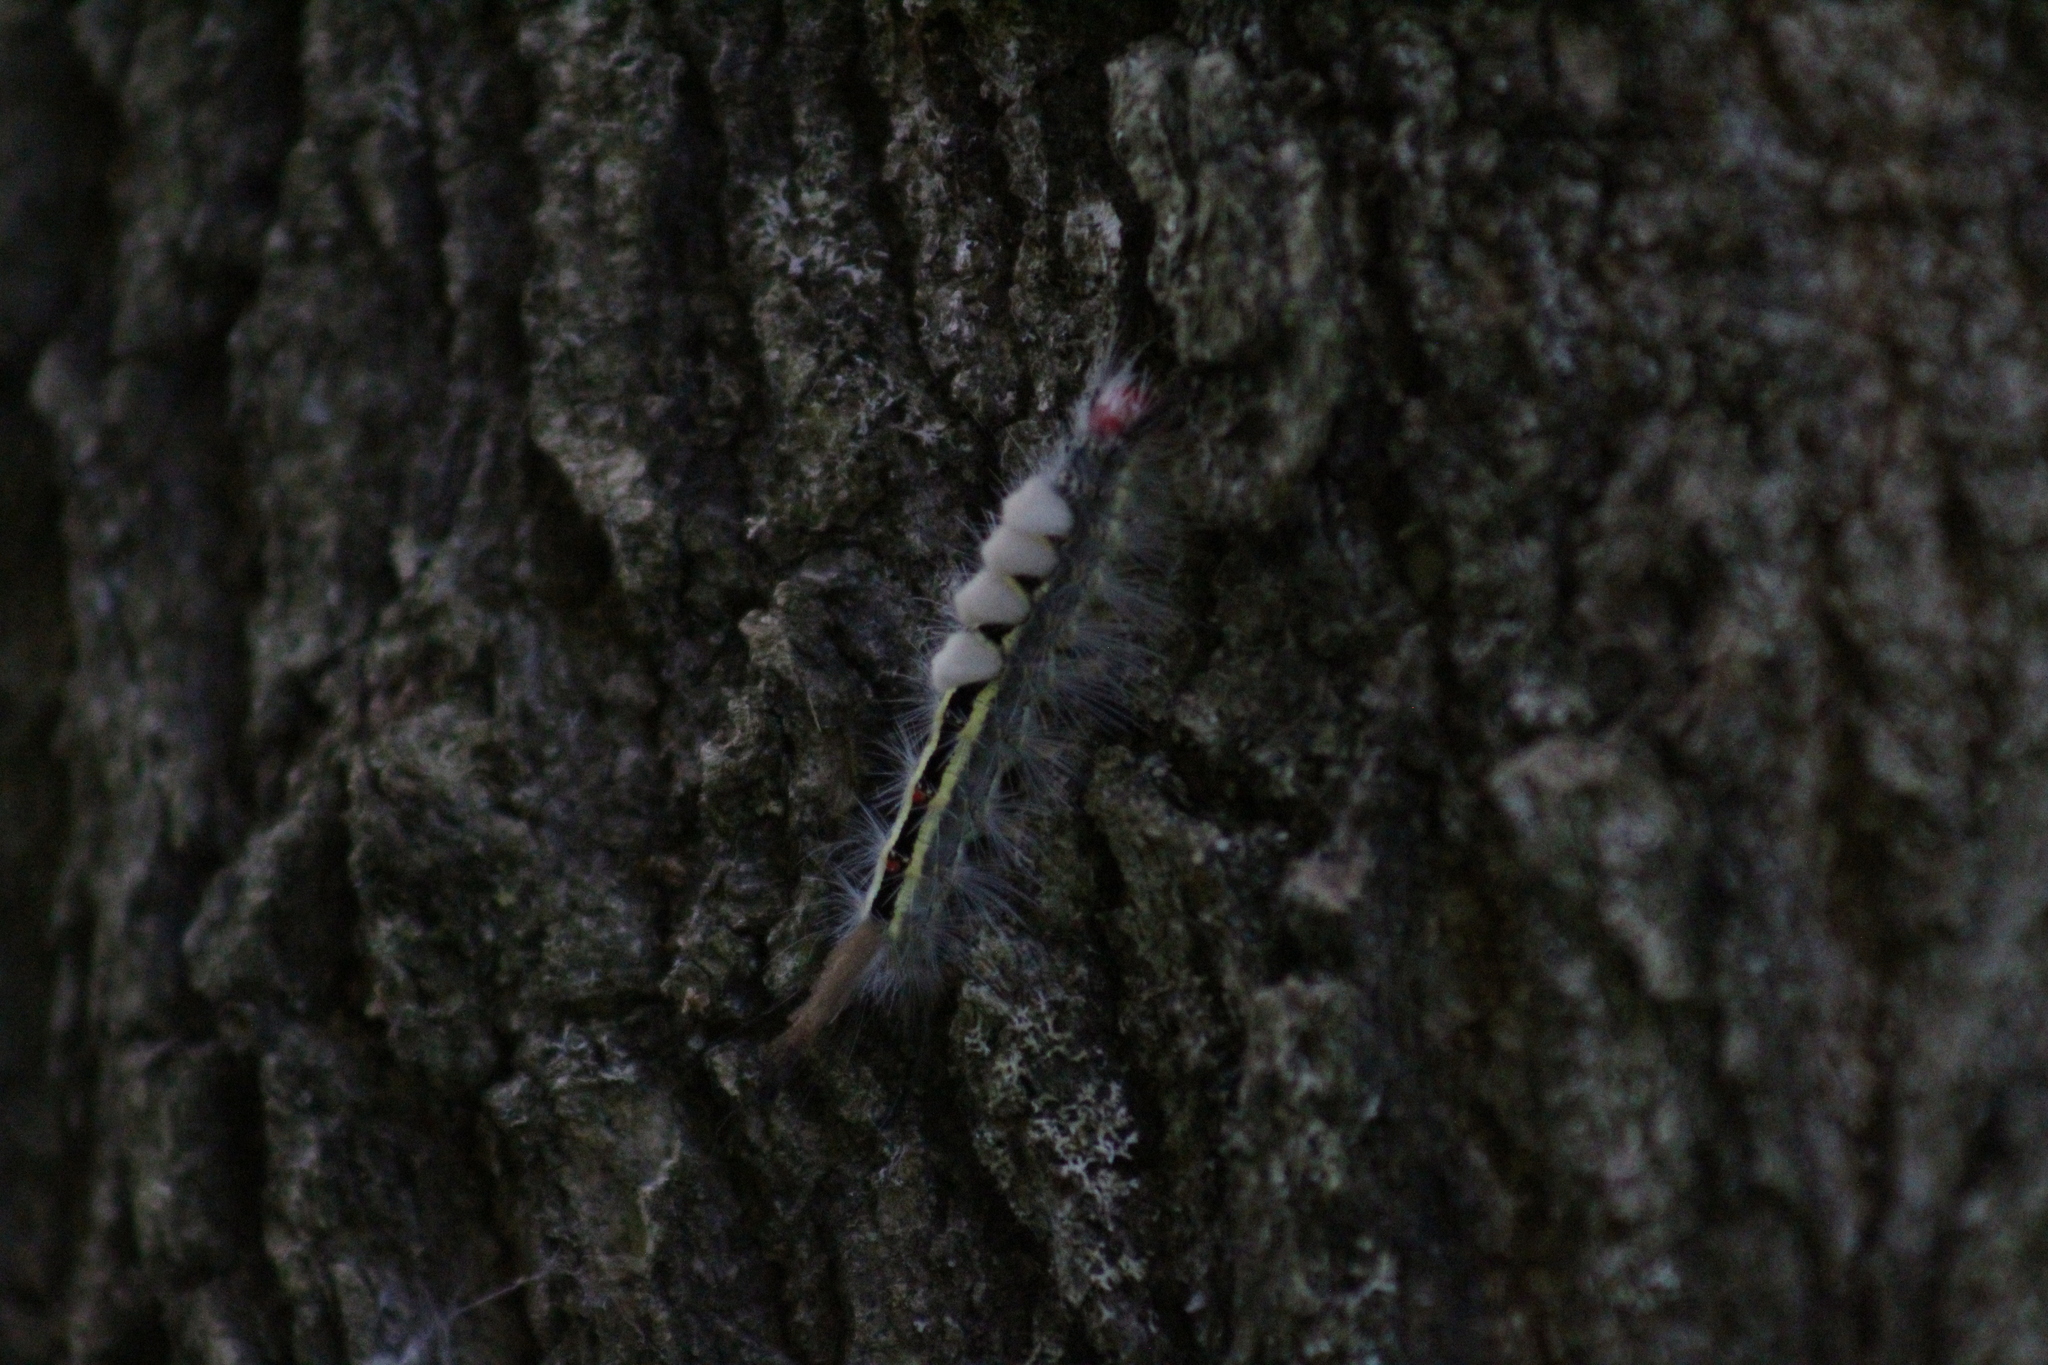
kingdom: Animalia
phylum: Arthropoda
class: Insecta
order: Lepidoptera
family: Erebidae
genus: Orgyia
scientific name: Orgyia leucostigma
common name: White-marked tussock moth
